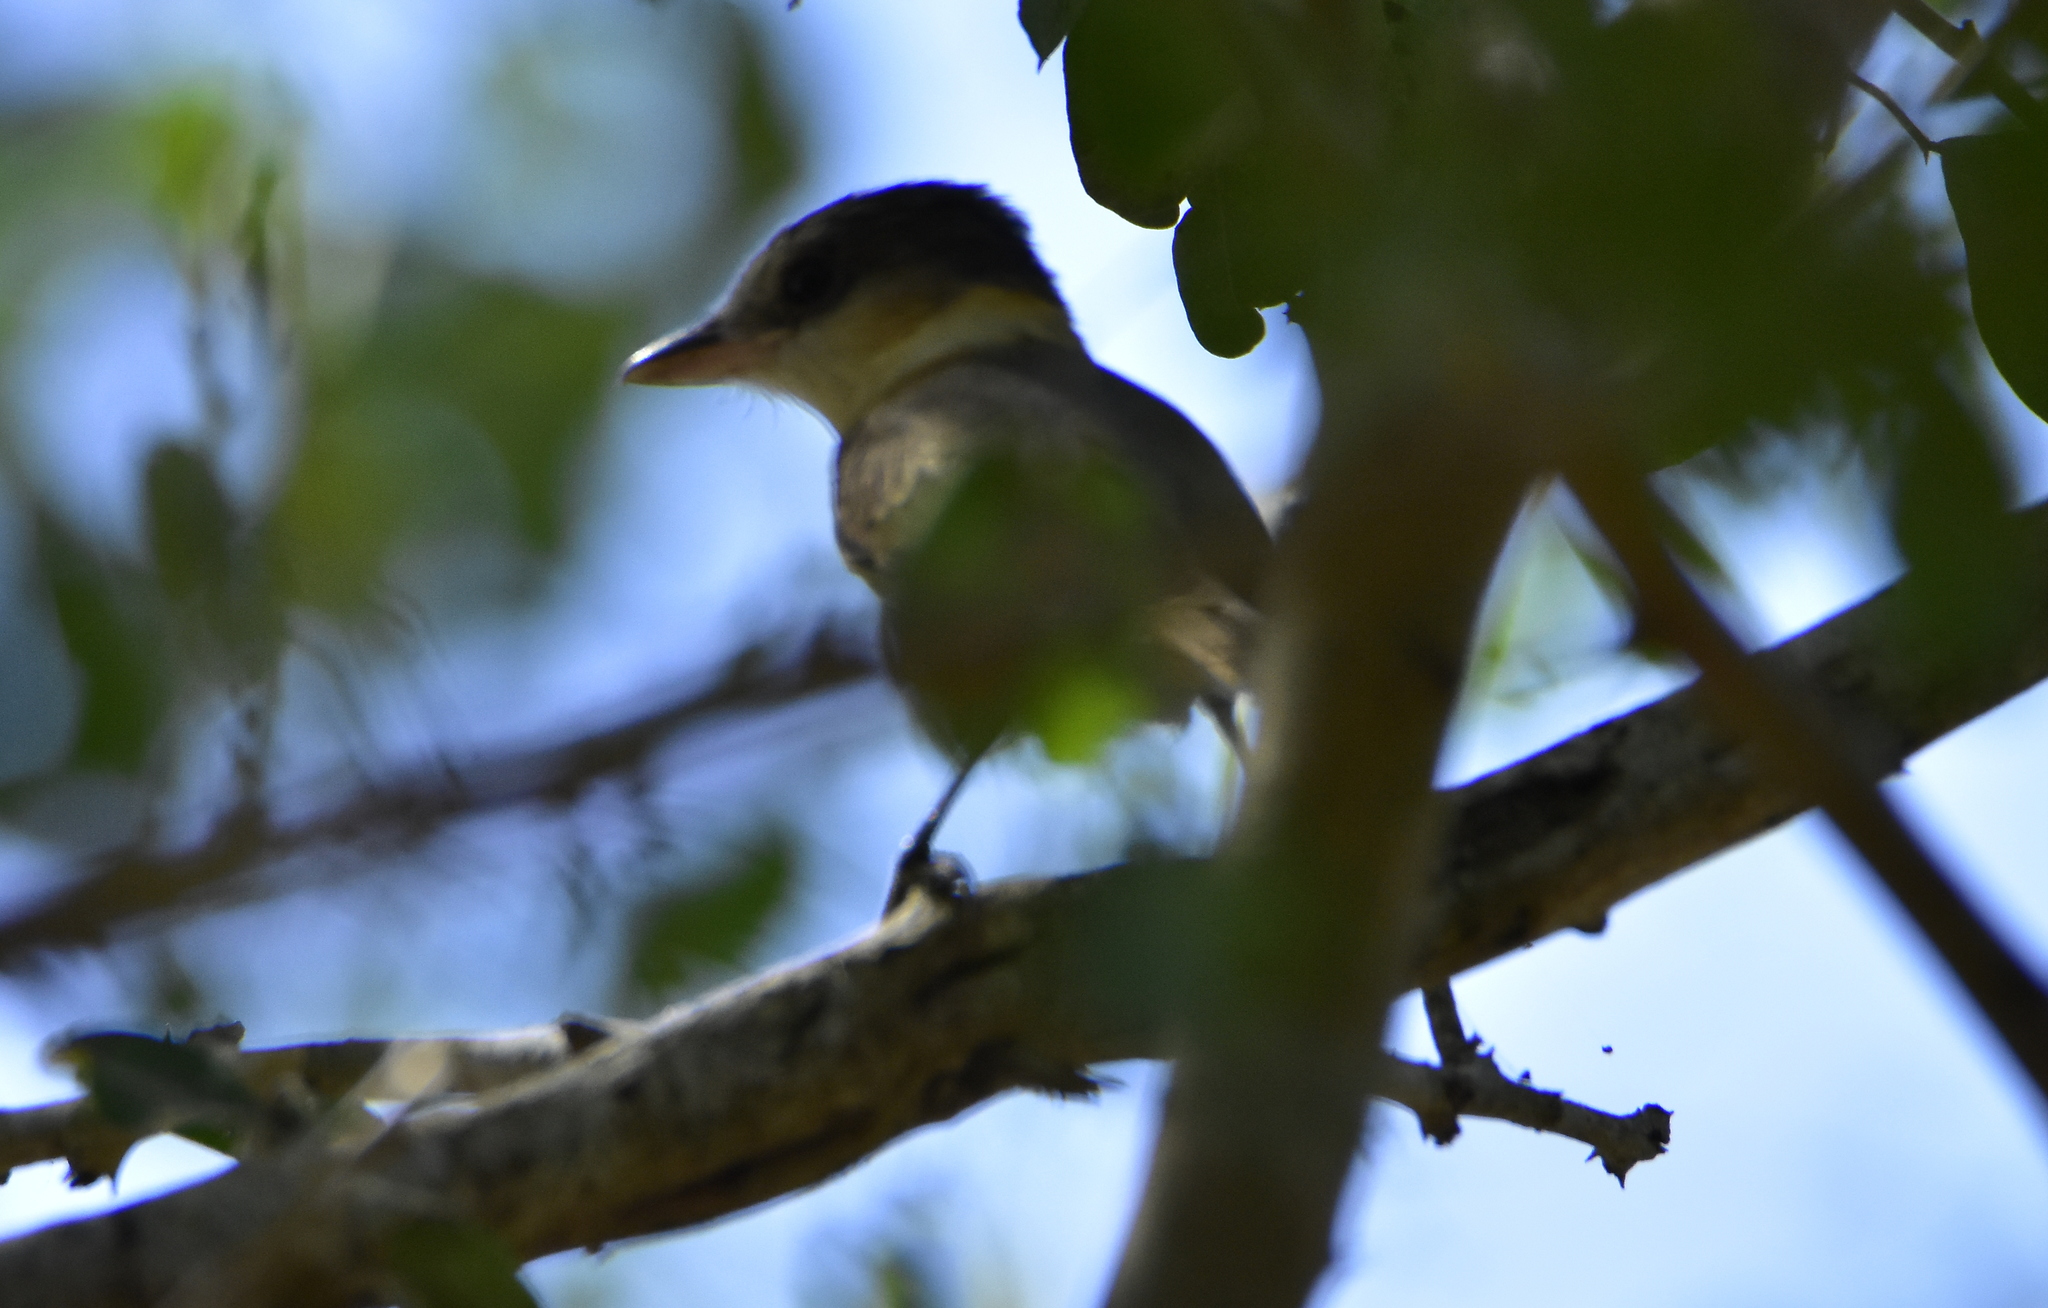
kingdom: Animalia
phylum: Chordata
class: Aves
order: Passeriformes
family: Cotingidae
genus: Pachyramphus
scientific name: Pachyramphus aglaiae
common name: Rose-throated becard
